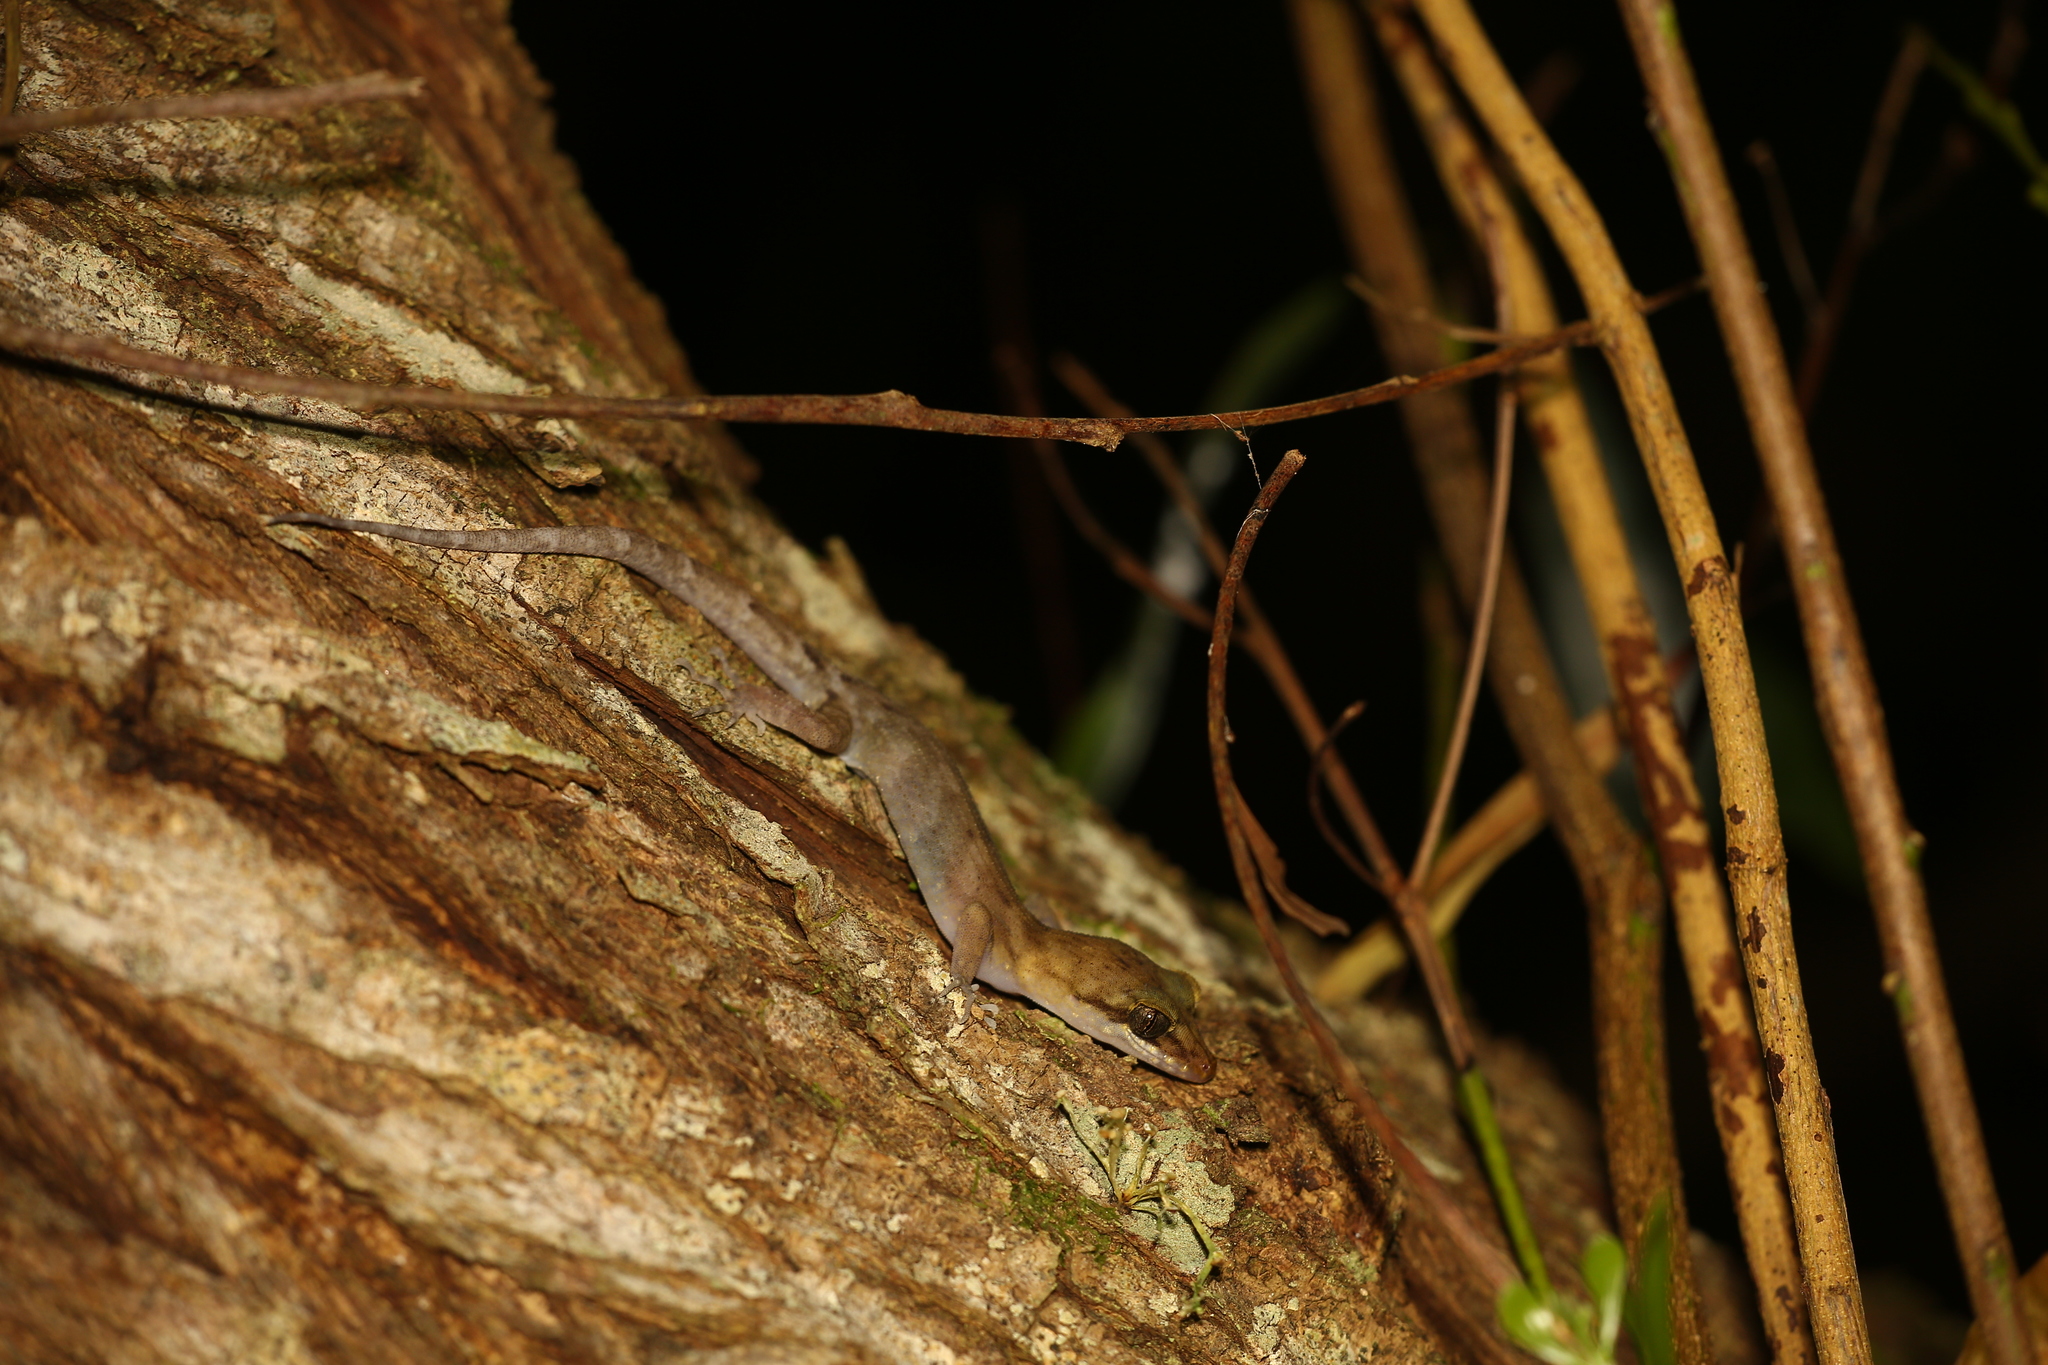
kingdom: Animalia
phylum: Chordata
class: Squamata
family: Gekkonidae
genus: Nactus
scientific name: Nactus pelagicus
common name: Pelagic gecko
